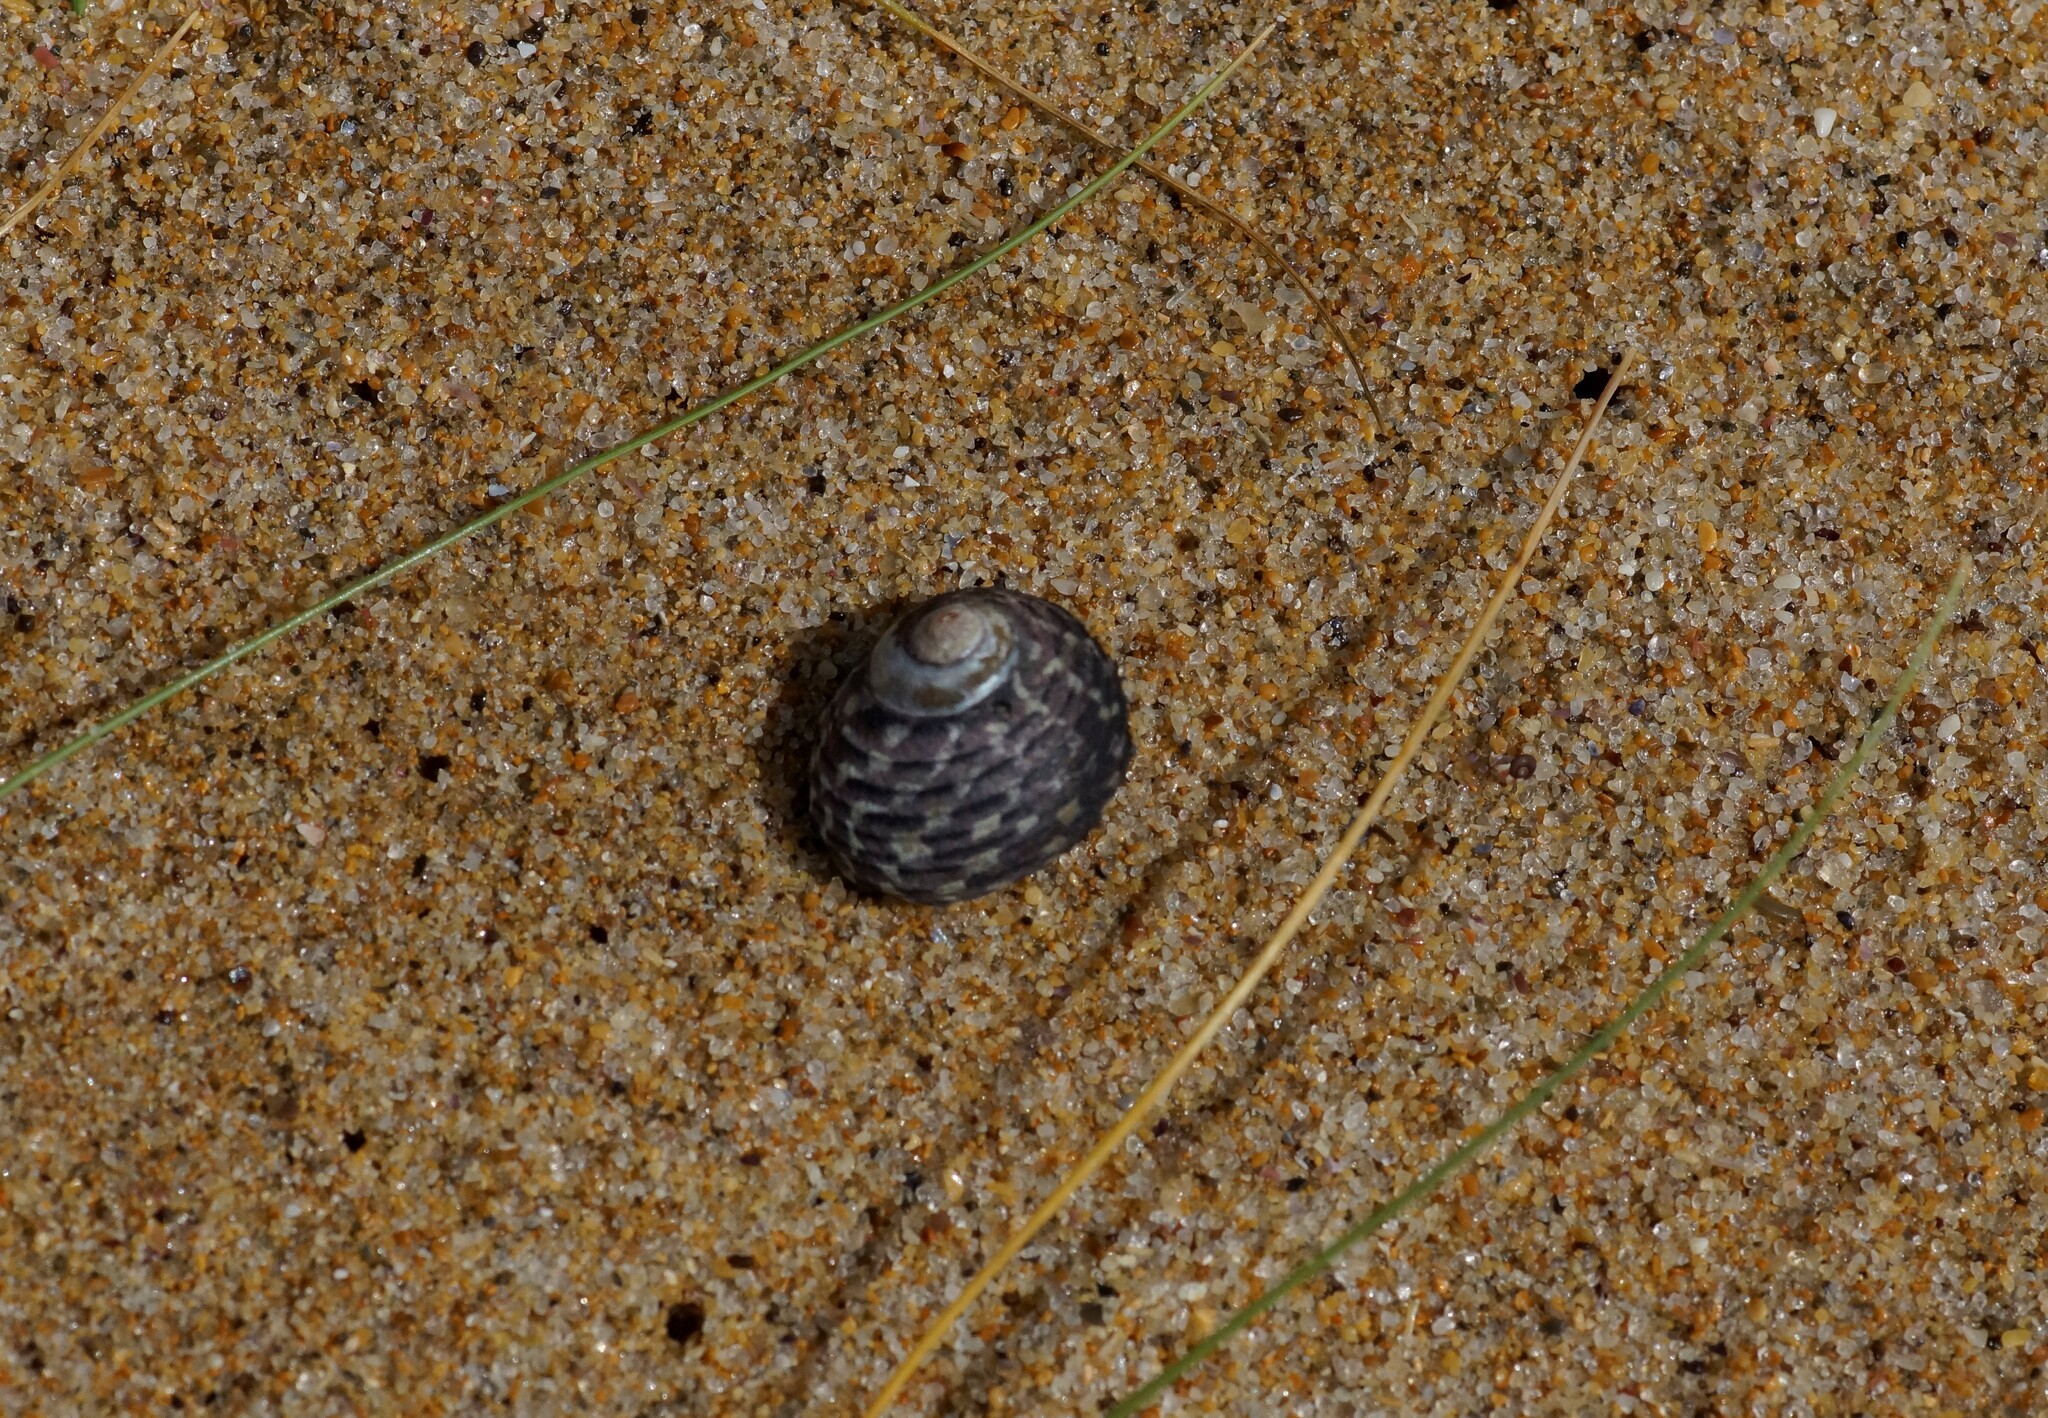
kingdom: Animalia
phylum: Mollusca
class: Gastropoda
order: Trochida
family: Trochidae
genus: Diloma
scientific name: Diloma concameratum
